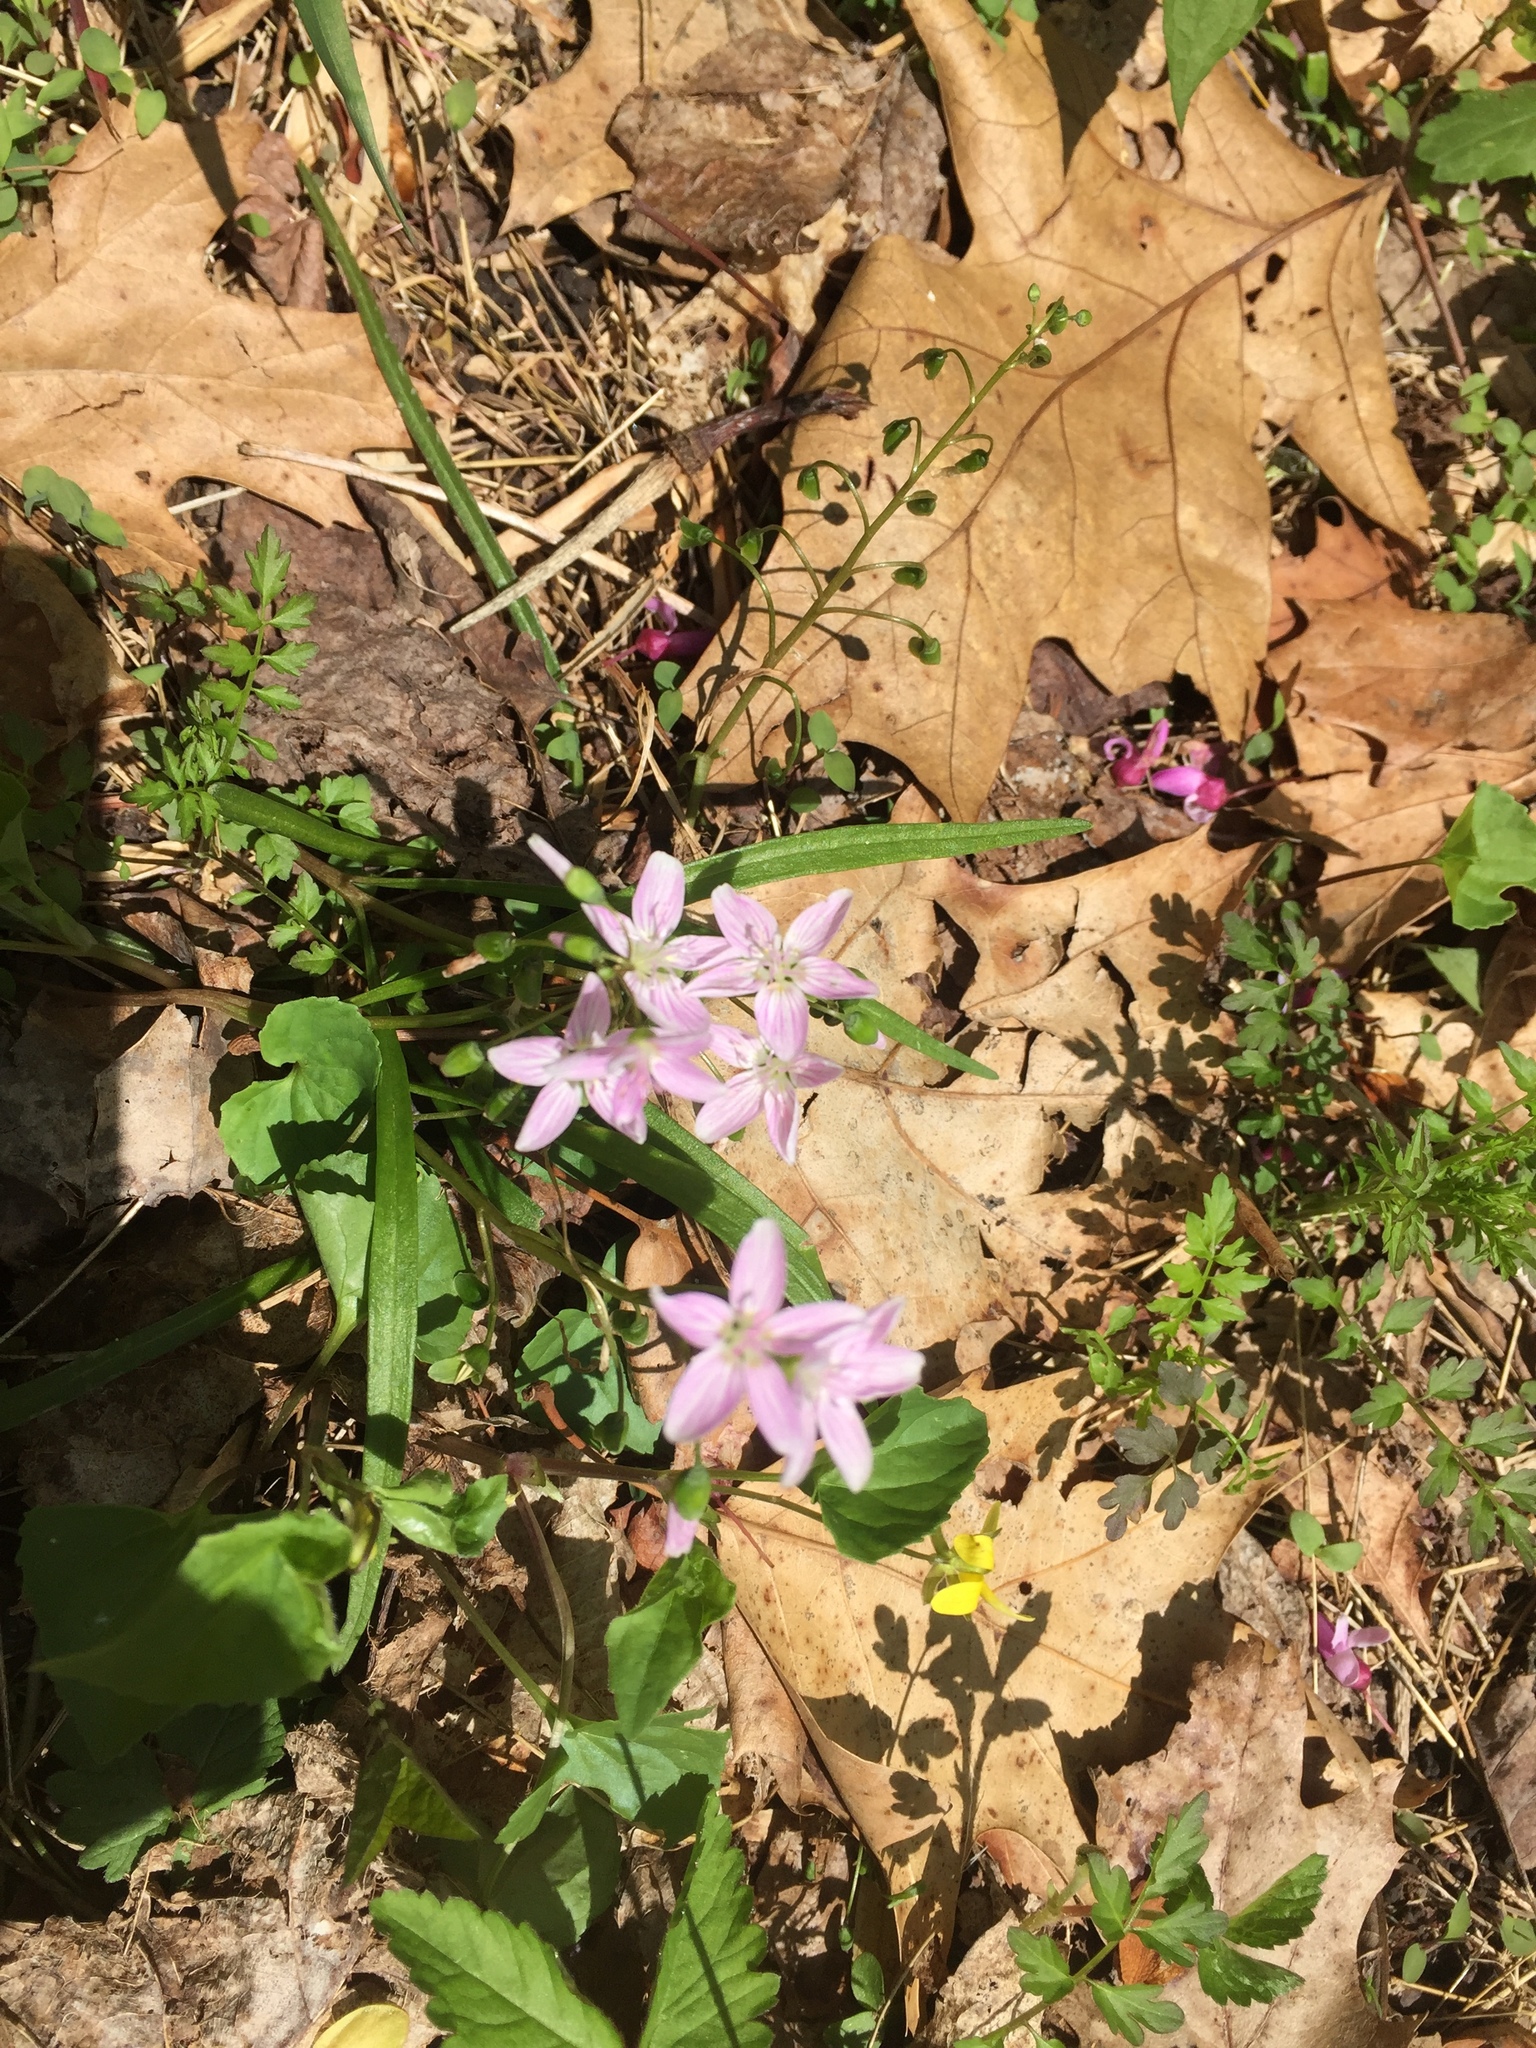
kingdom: Plantae
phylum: Tracheophyta
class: Magnoliopsida
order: Caryophyllales
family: Montiaceae
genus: Claytonia
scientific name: Claytonia virginica
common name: Virginia springbeauty
